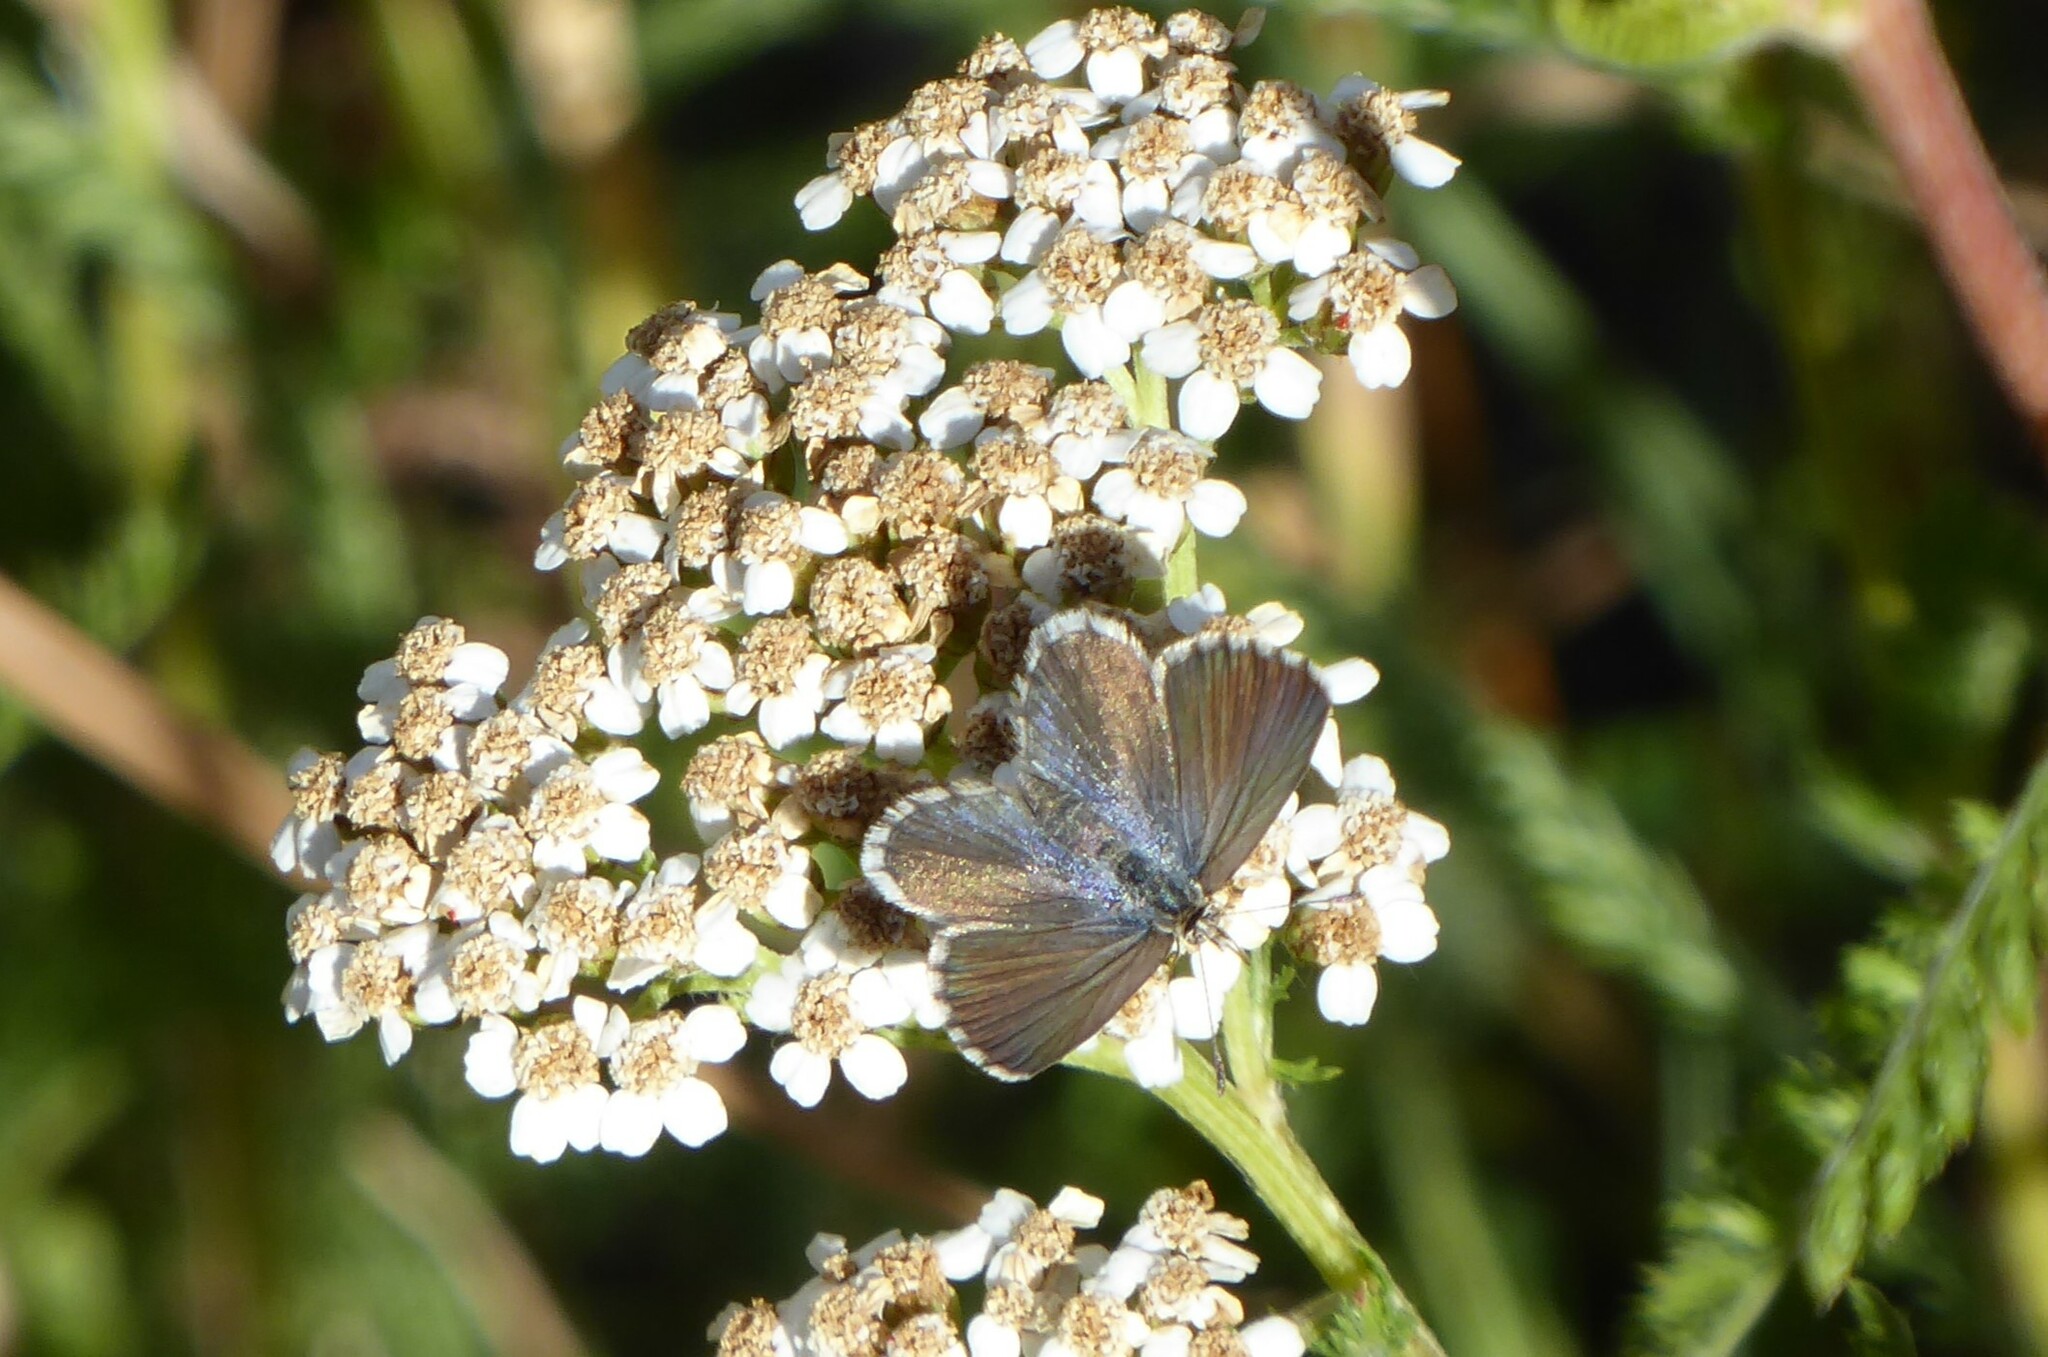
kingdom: Animalia
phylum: Arthropoda
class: Insecta
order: Lepidoptera
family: Lycaenidae
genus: Zizina
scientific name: Zizina oxleyi
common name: Southern blue
